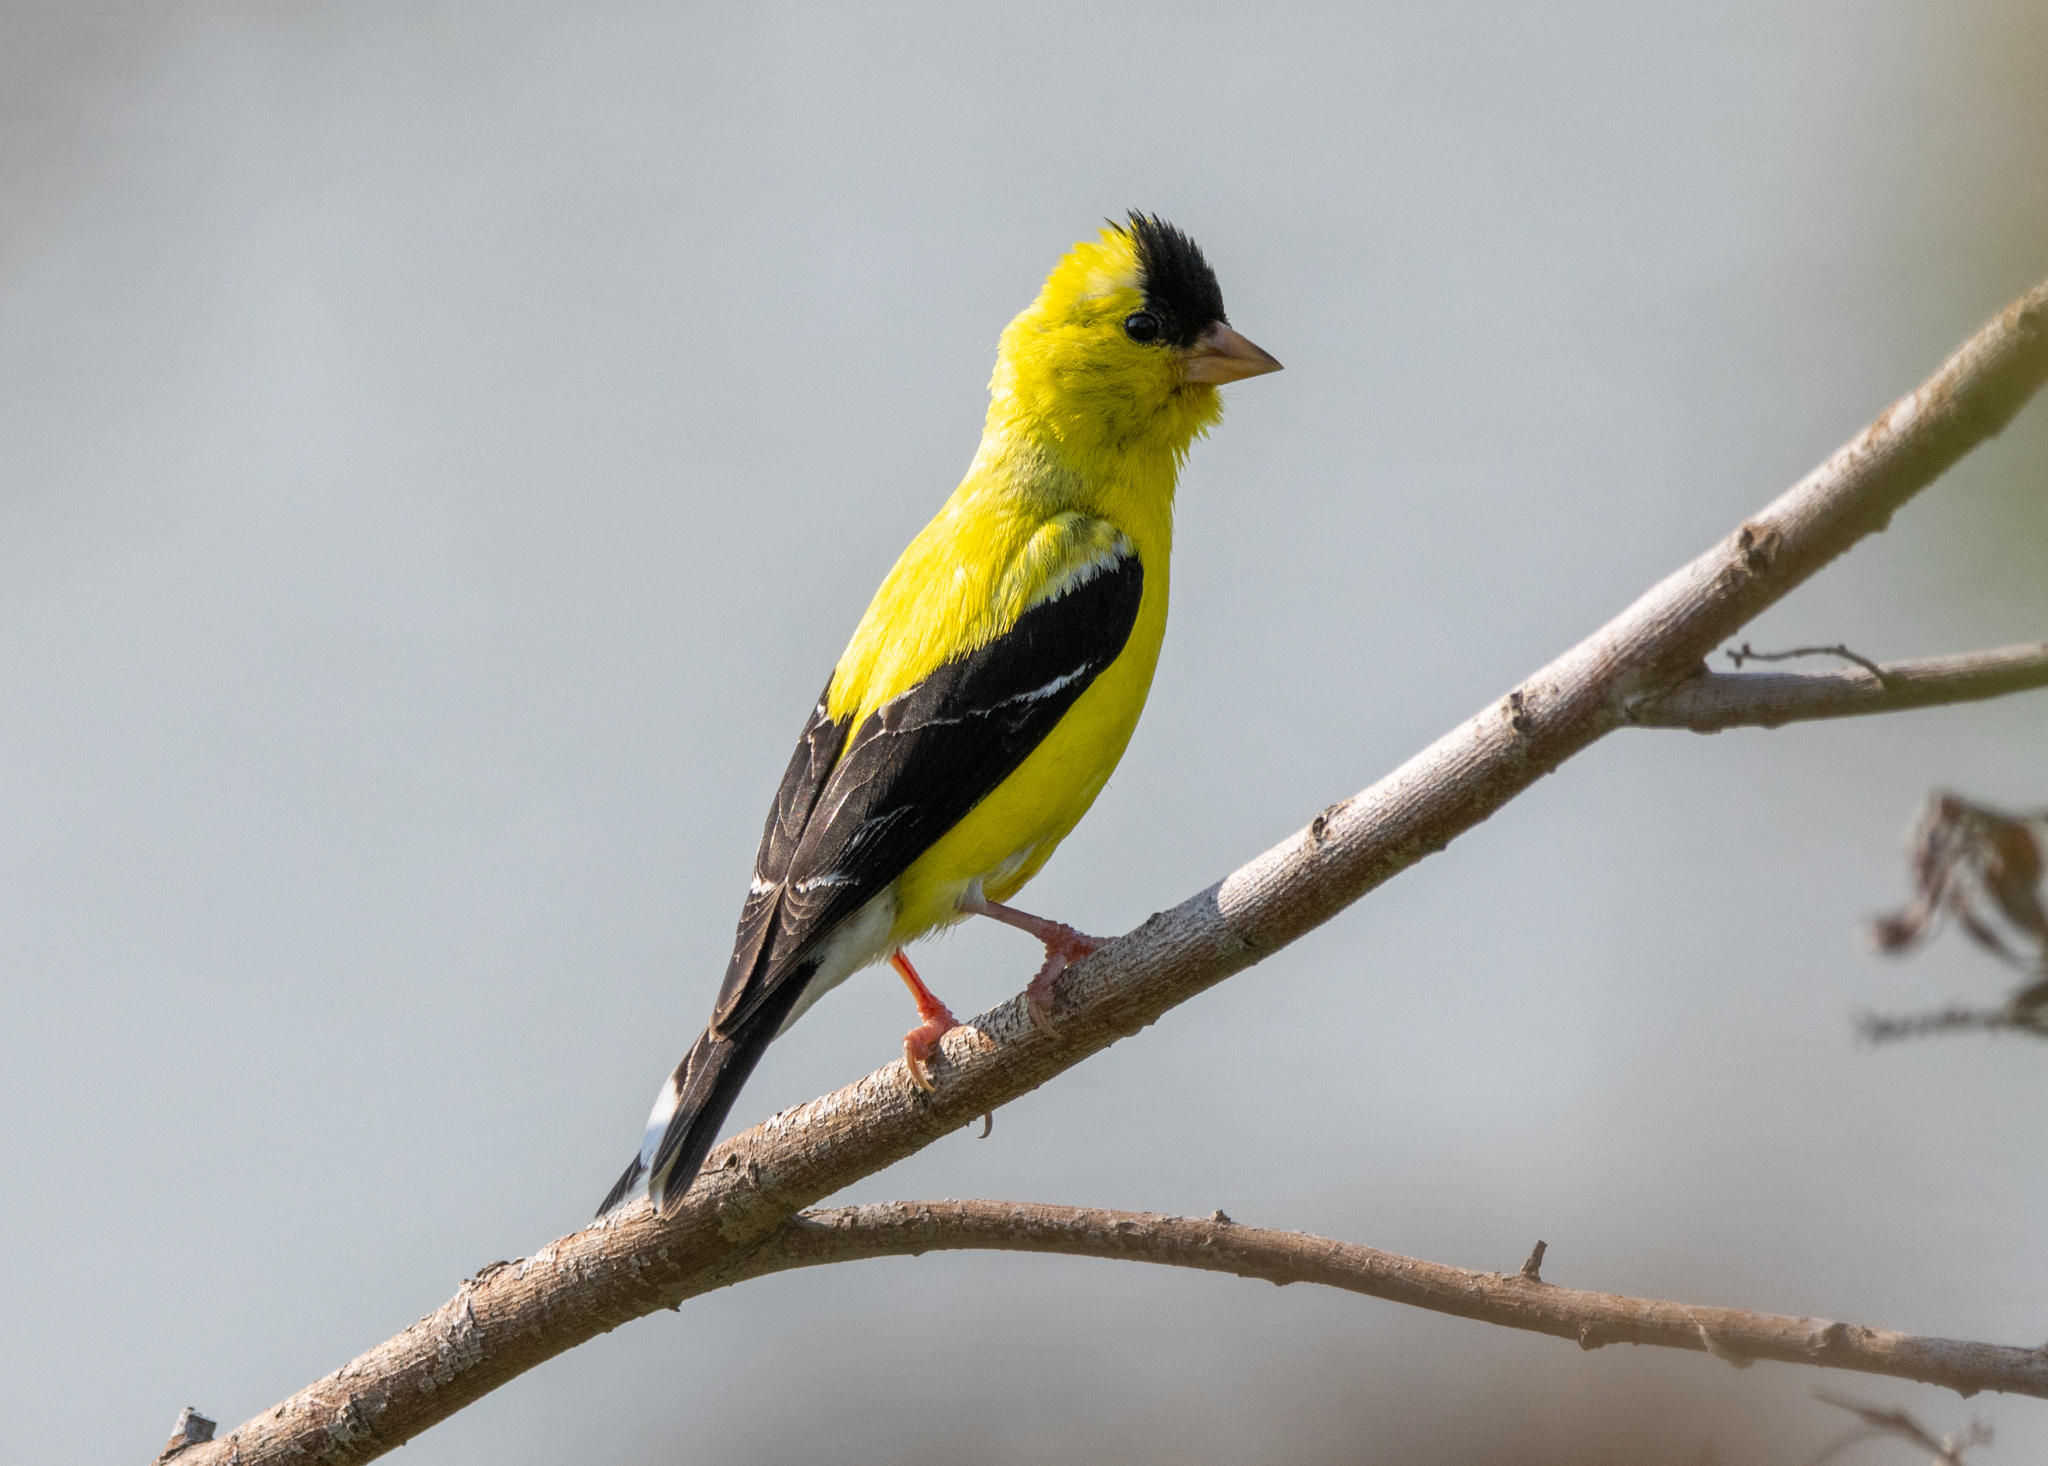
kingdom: Animalia
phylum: Chordata
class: Aves
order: Passeriformes
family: Fringillidae
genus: Spinus
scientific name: Spinus tristis
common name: American goldfinch
